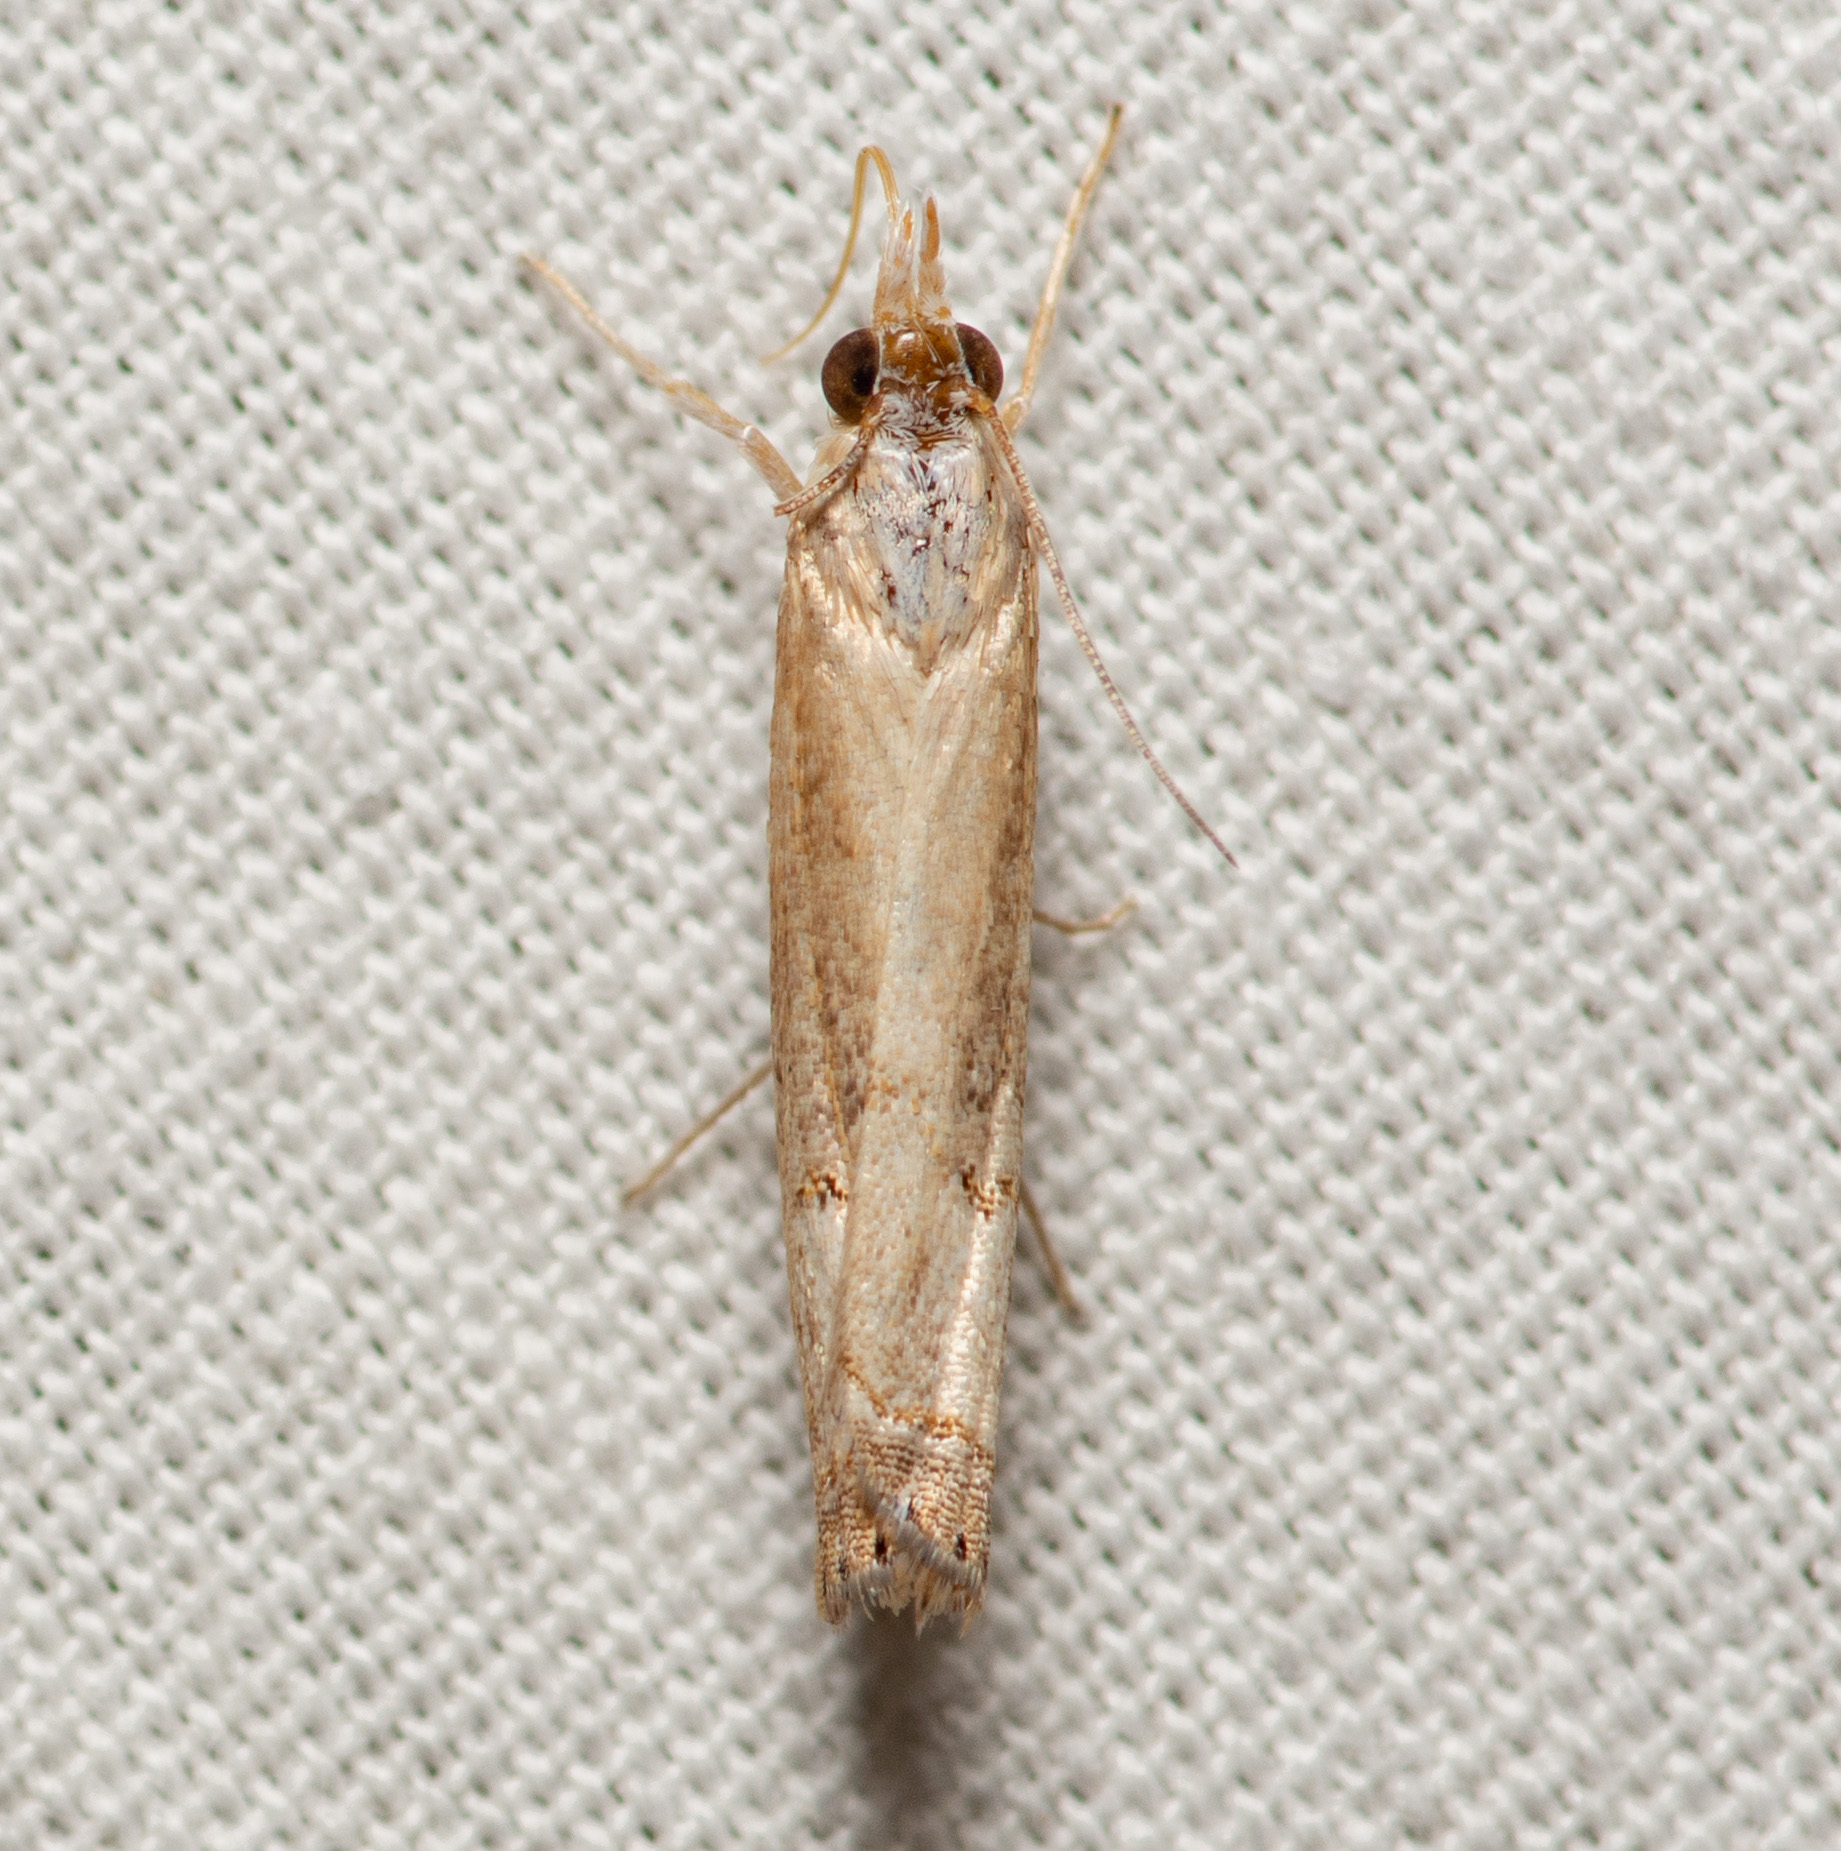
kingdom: Animalia
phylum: Arthropoda
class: Insecta
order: Lepidoptera
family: Crambidae
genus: Parapediasia
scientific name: Parapediasia teterellus
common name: Bluegrass webworm moth
